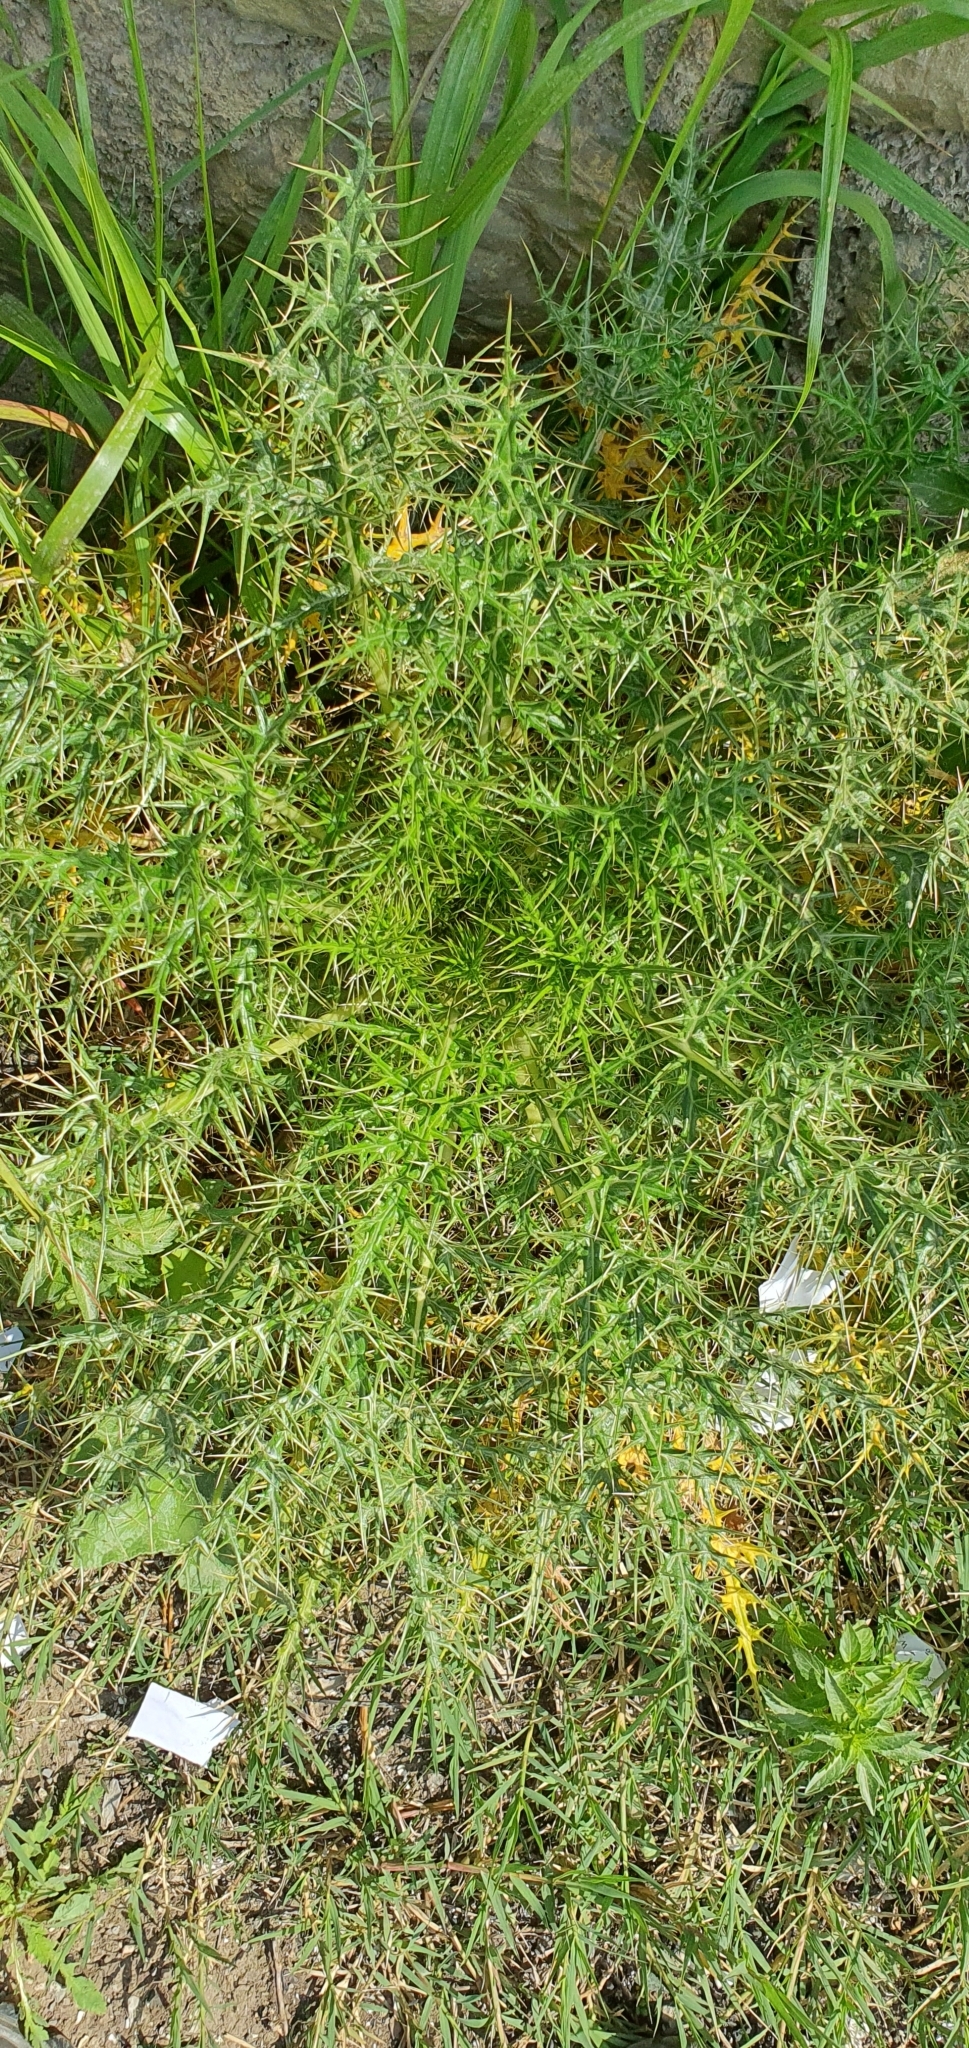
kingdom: Plantae
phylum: Tracheophyta
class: Magnoliopsida
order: Asterales
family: Asteraceae
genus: Echinops
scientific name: Echinops bovei
